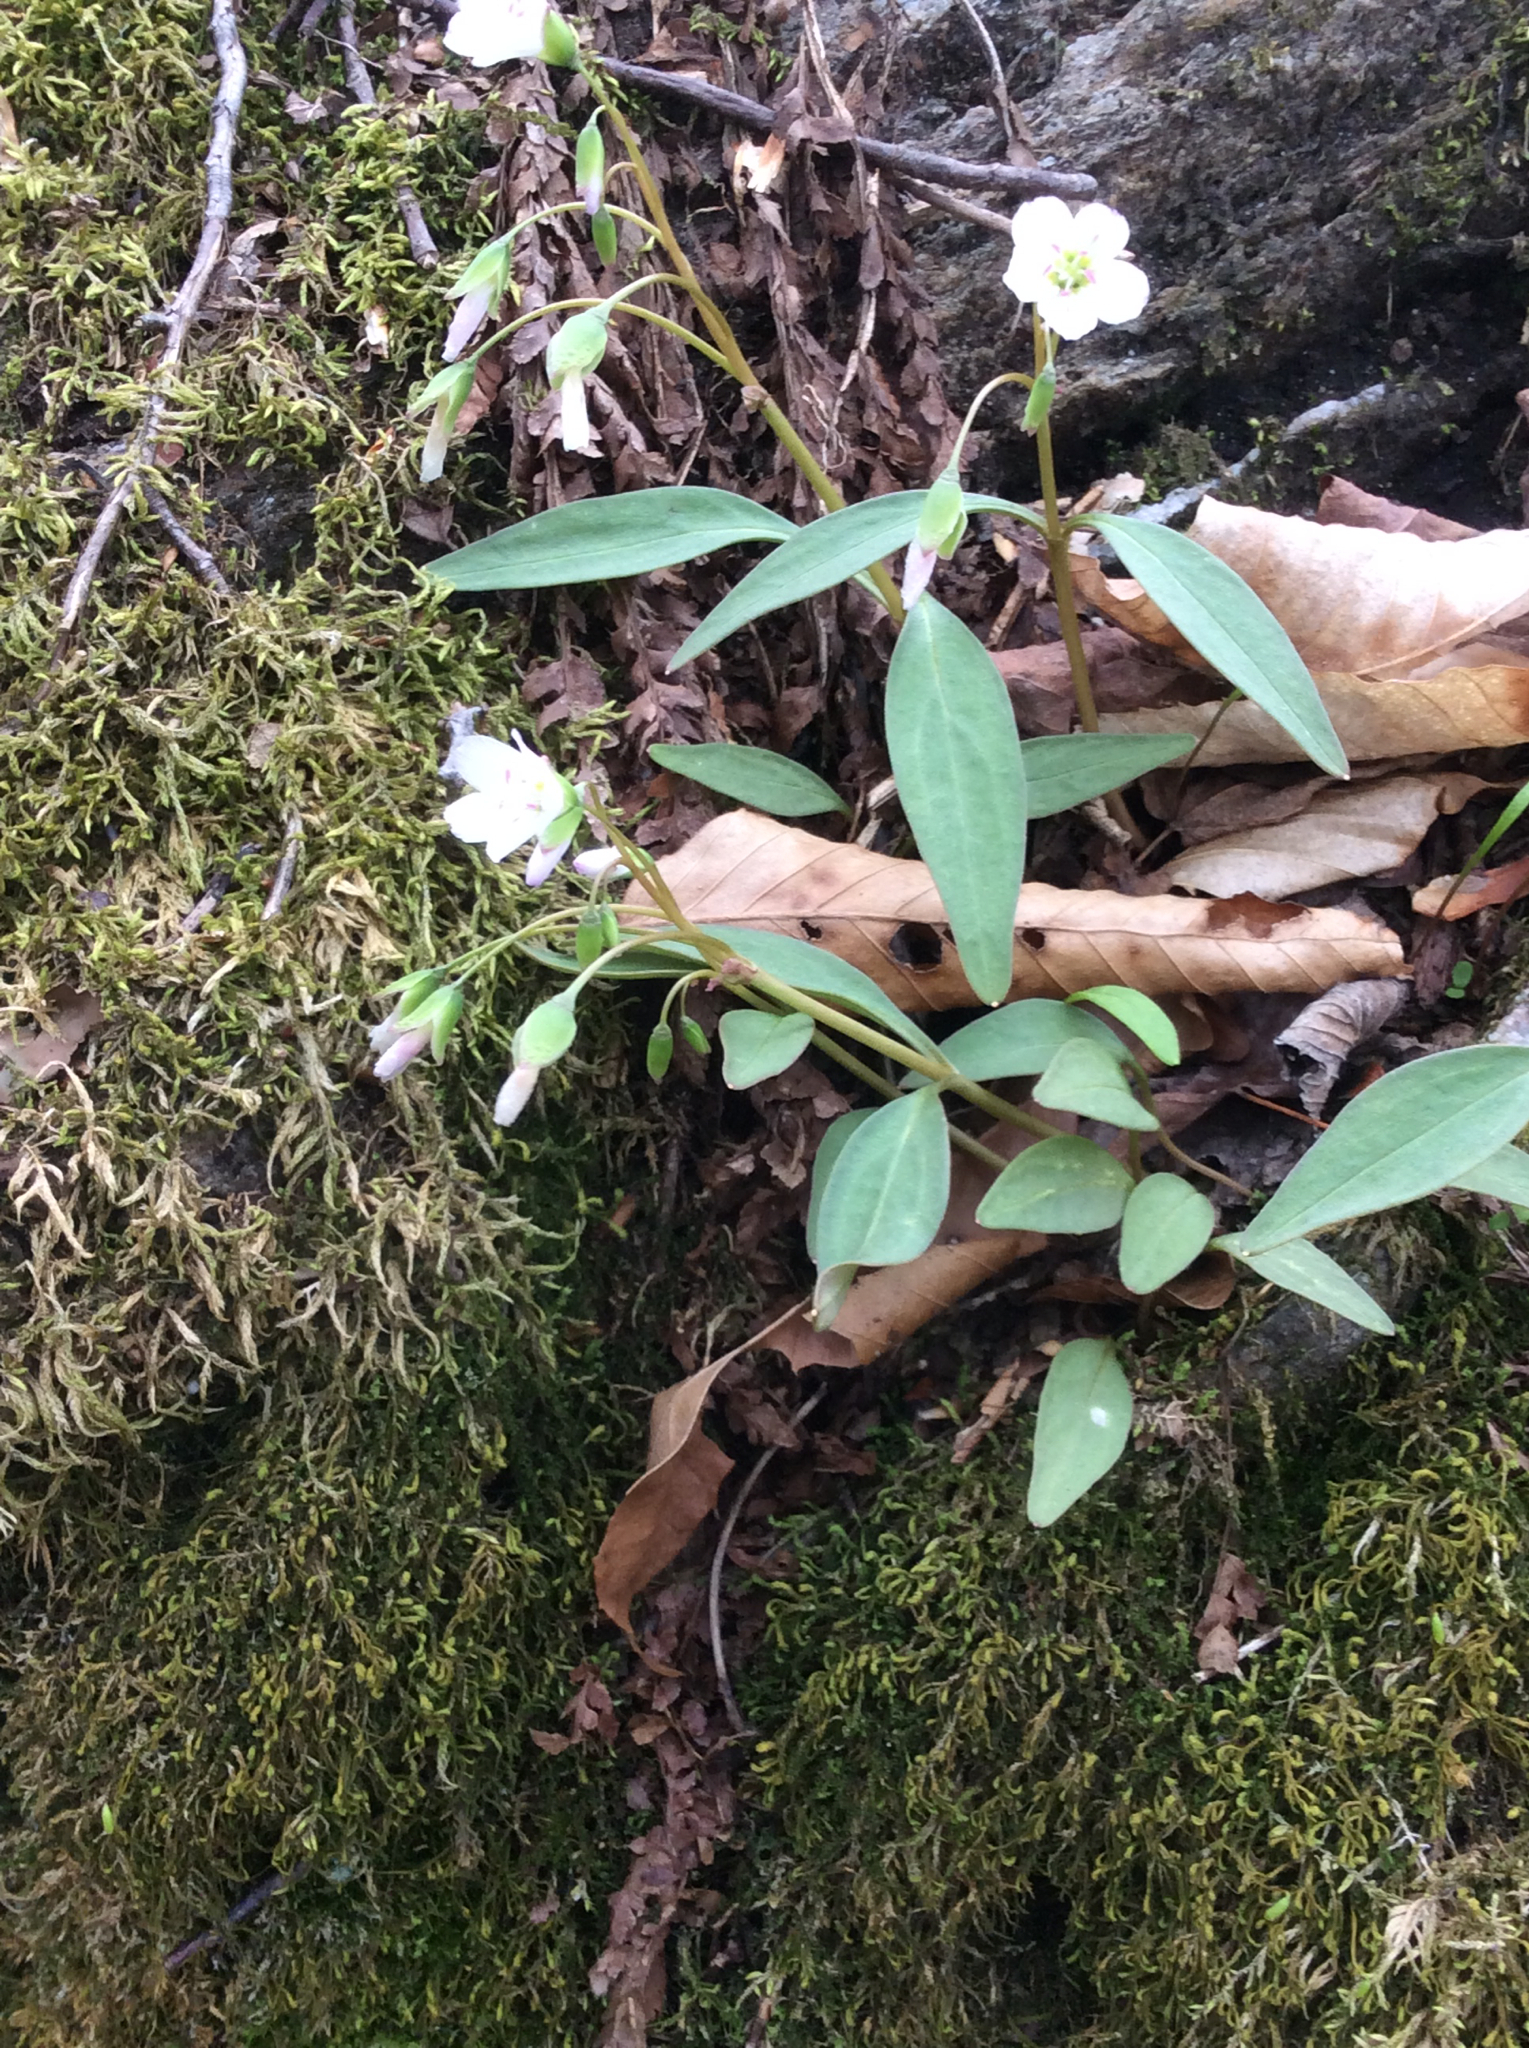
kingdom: Plantae
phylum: Tracheophyta
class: Magnoliopsida
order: Caryophyllales
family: Montiaceae
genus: Claytonia
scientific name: Claytonia caroliniana
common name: Carolina spring beauty
